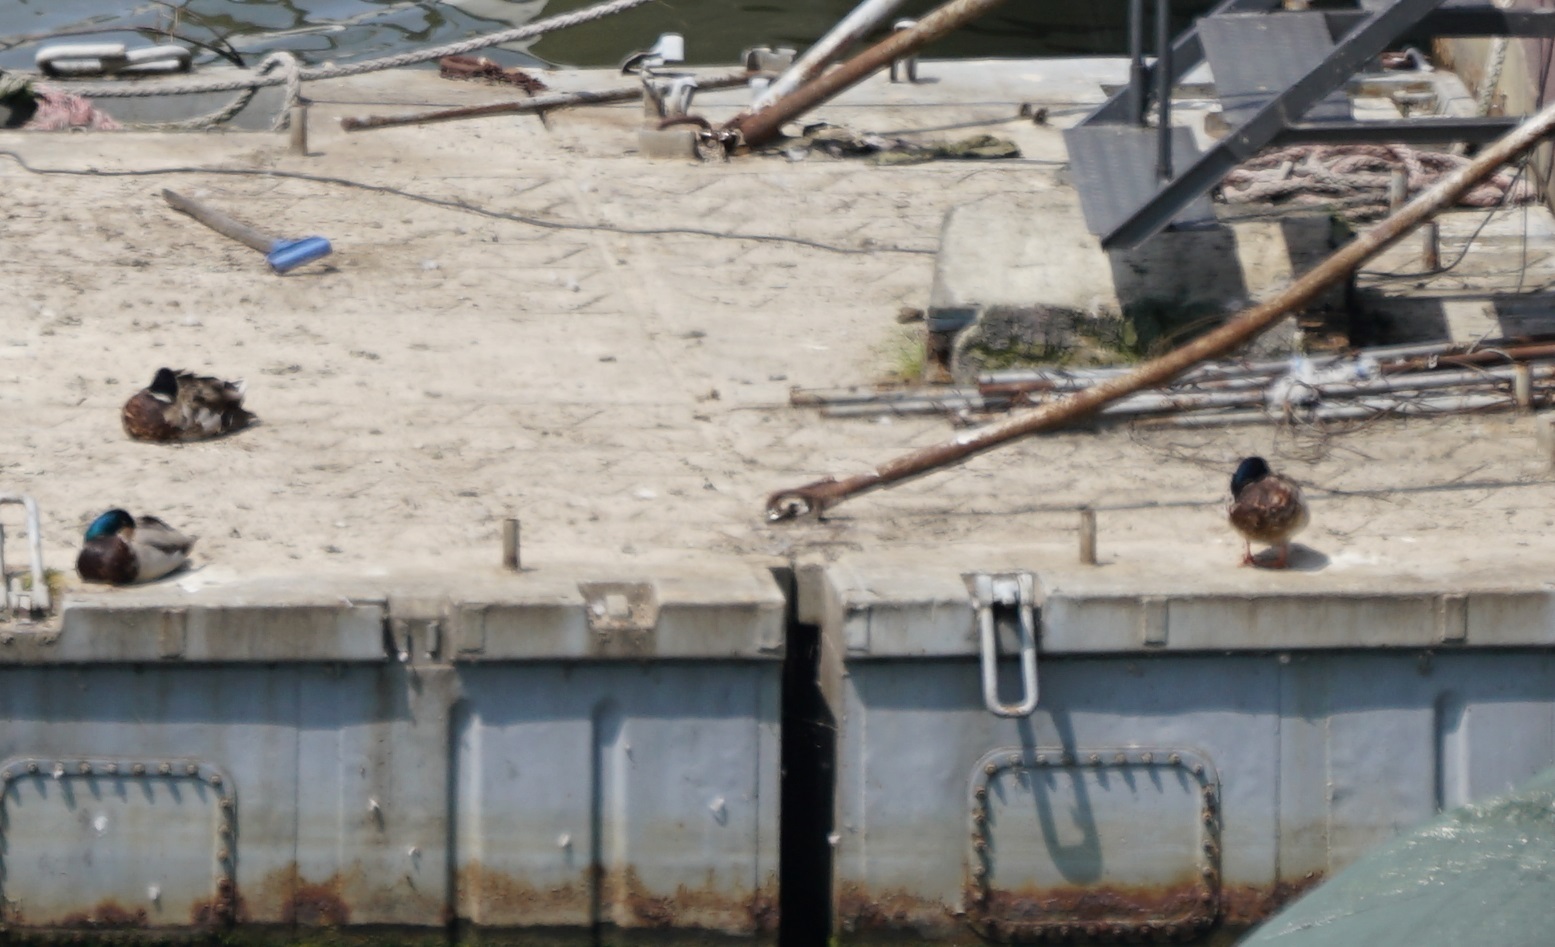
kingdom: Animalia
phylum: Chordata
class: Aves
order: Anseriformes
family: Anatidae
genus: Anas
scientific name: Anas platyrhynchos
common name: Mallard
